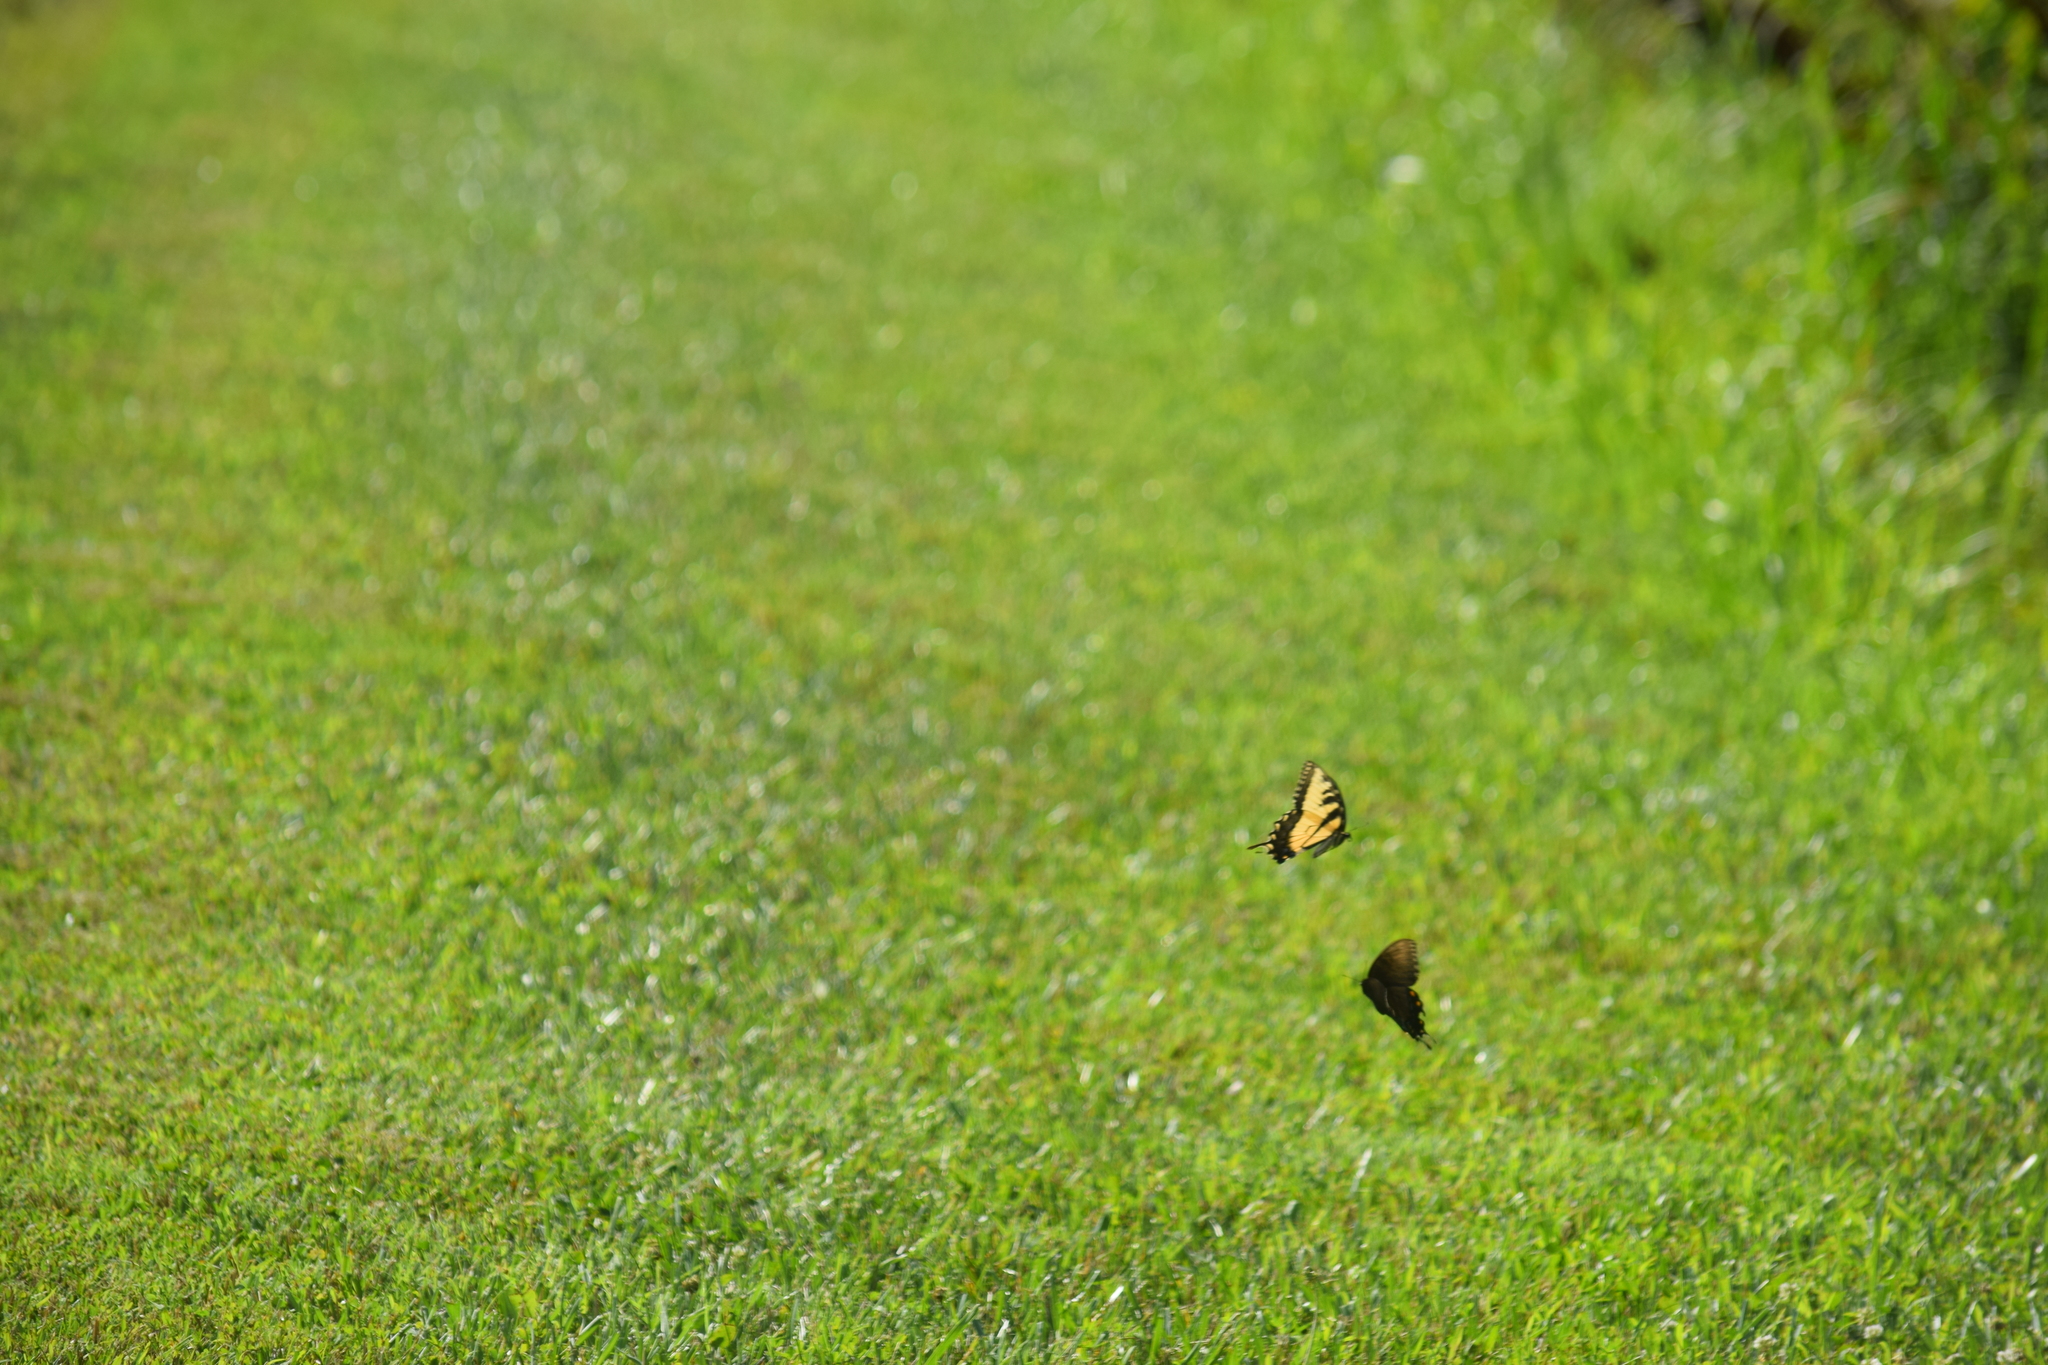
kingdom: Animalia
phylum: Arthropoda
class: Insecta
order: Lepidoptera
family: Papilionidae
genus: Papilio
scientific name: Papilio glaucus
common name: Tiger swallowtail
